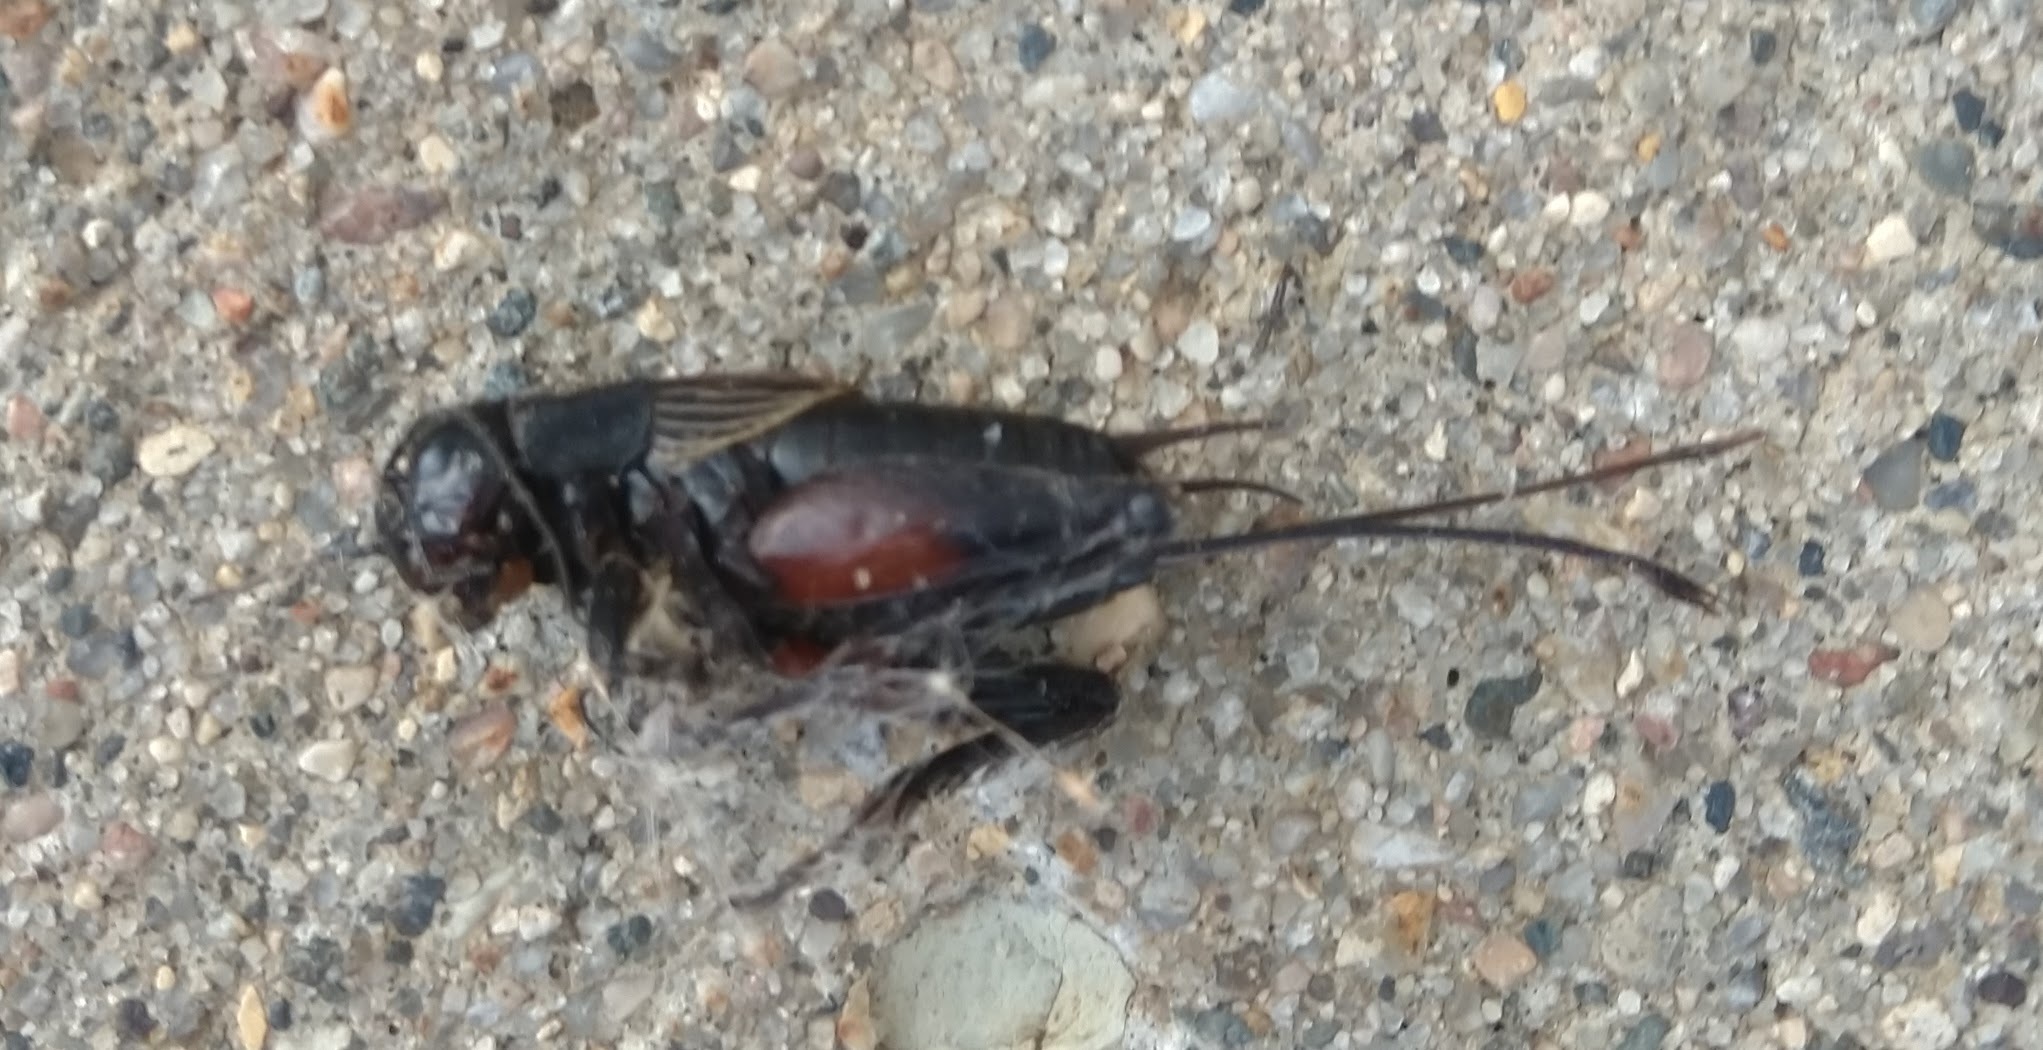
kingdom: Animalia
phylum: Arthropoda
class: Insecta
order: Orthoptera
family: Gryllidae
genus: Gryllus
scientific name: Gryllus pennsylvanicus
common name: Fall field cricket
